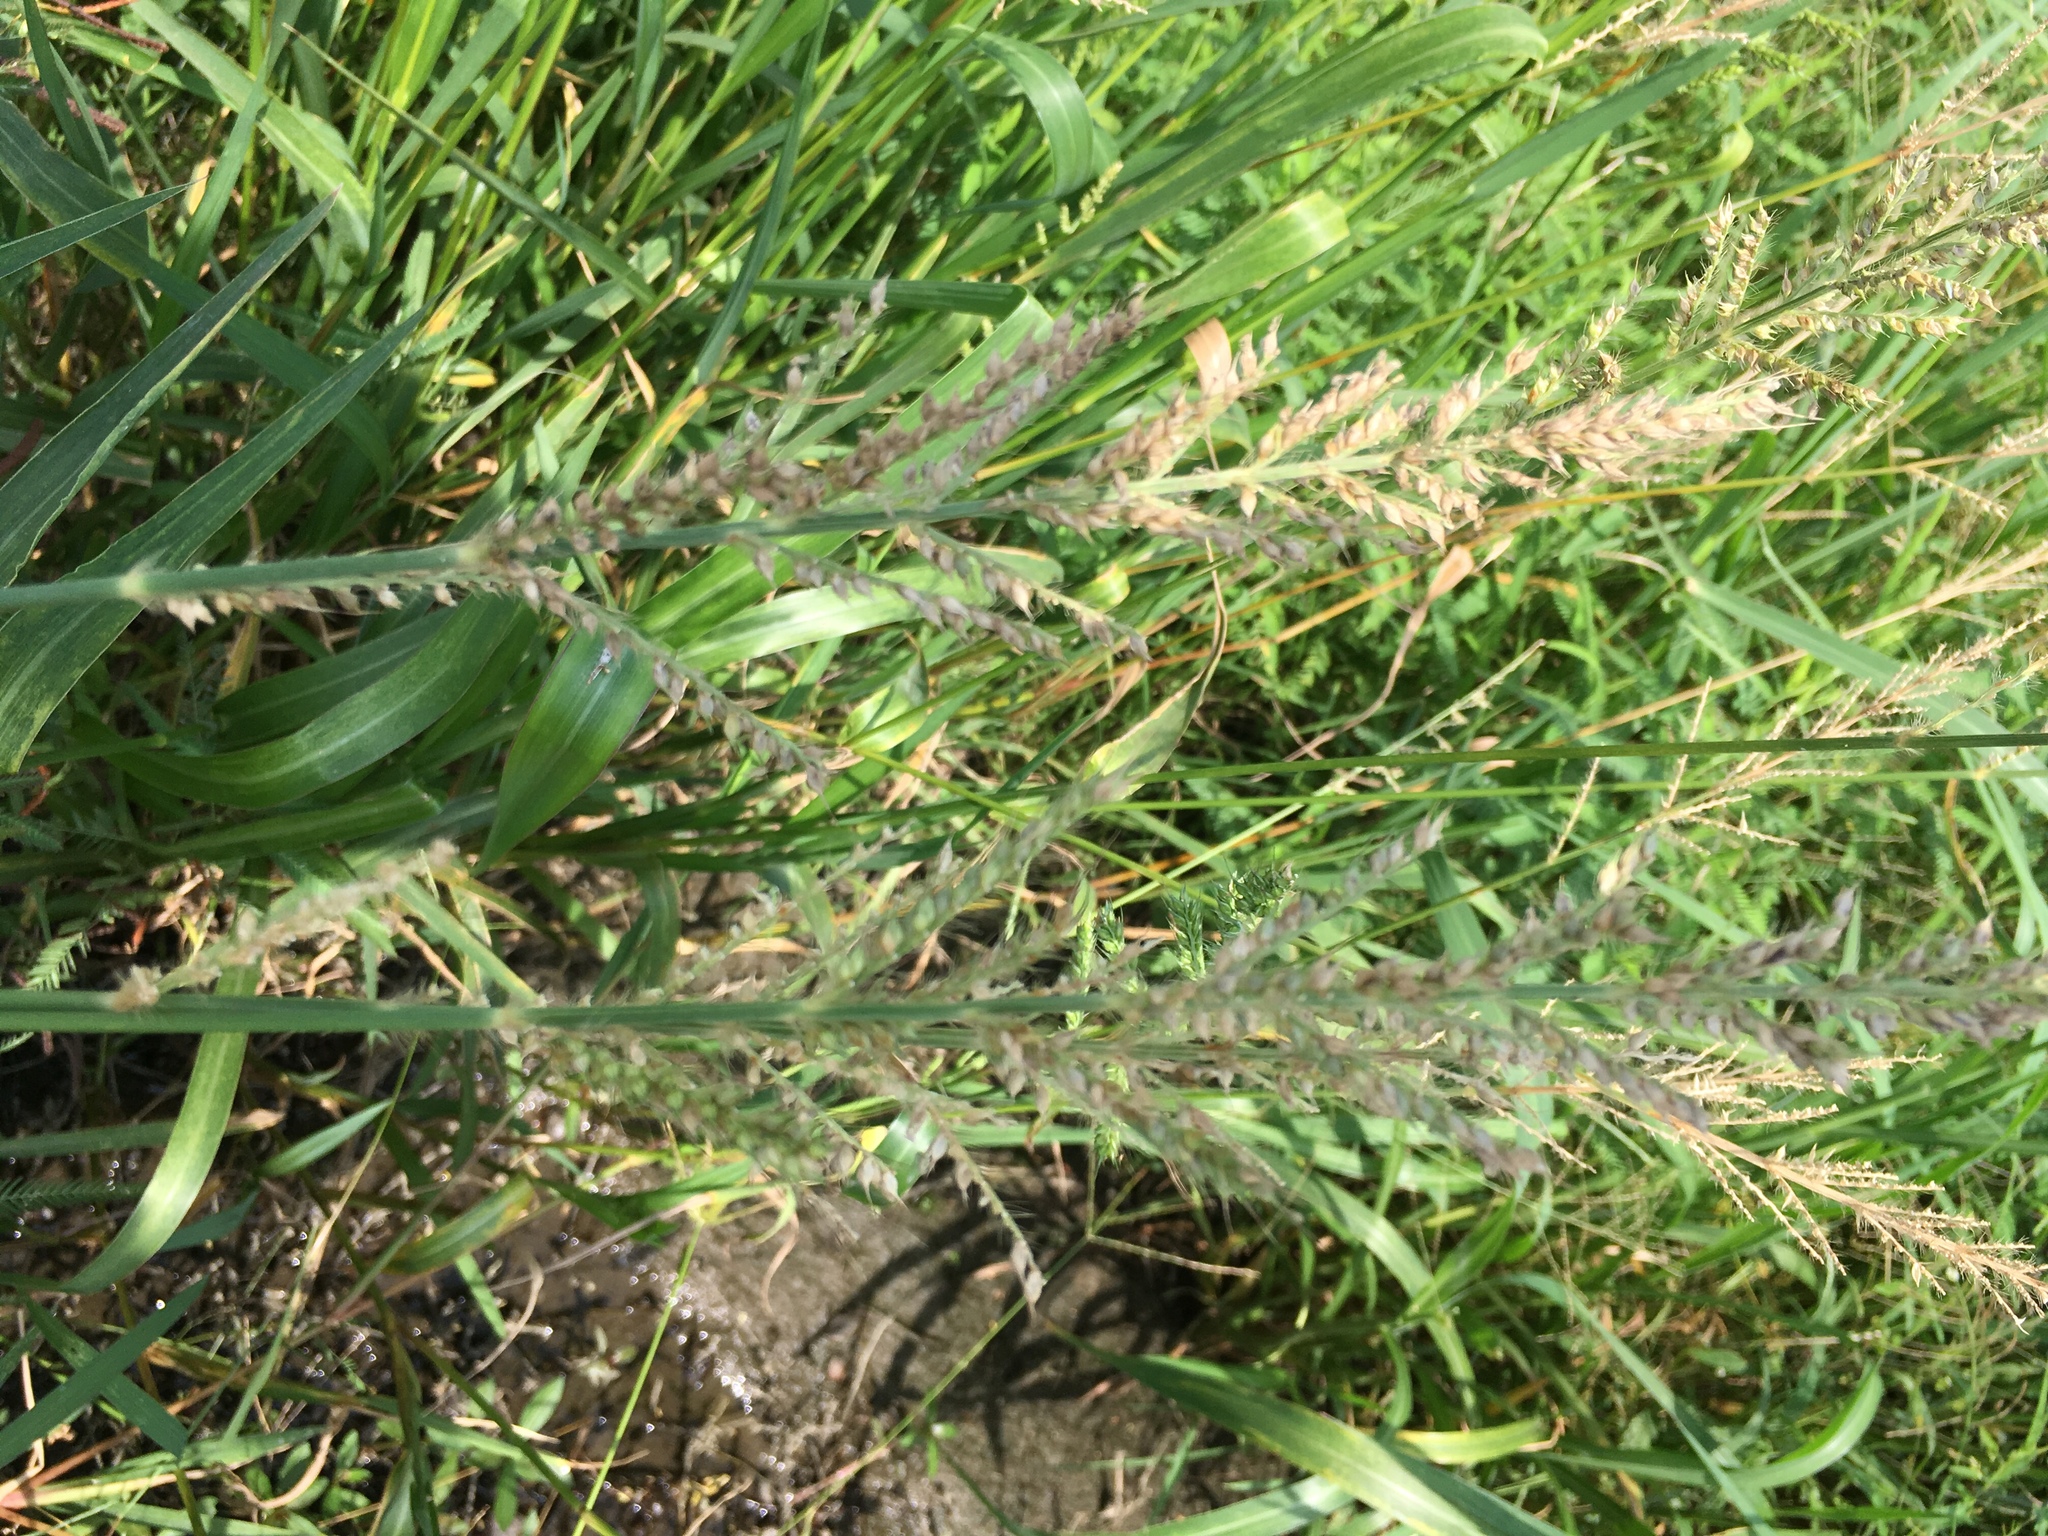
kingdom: Plantae
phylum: Tracheophyta
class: Liliopsida
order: Poales
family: Poaceae
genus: Echinochloa
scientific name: Echinochloa crus-galli
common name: Cockspur
